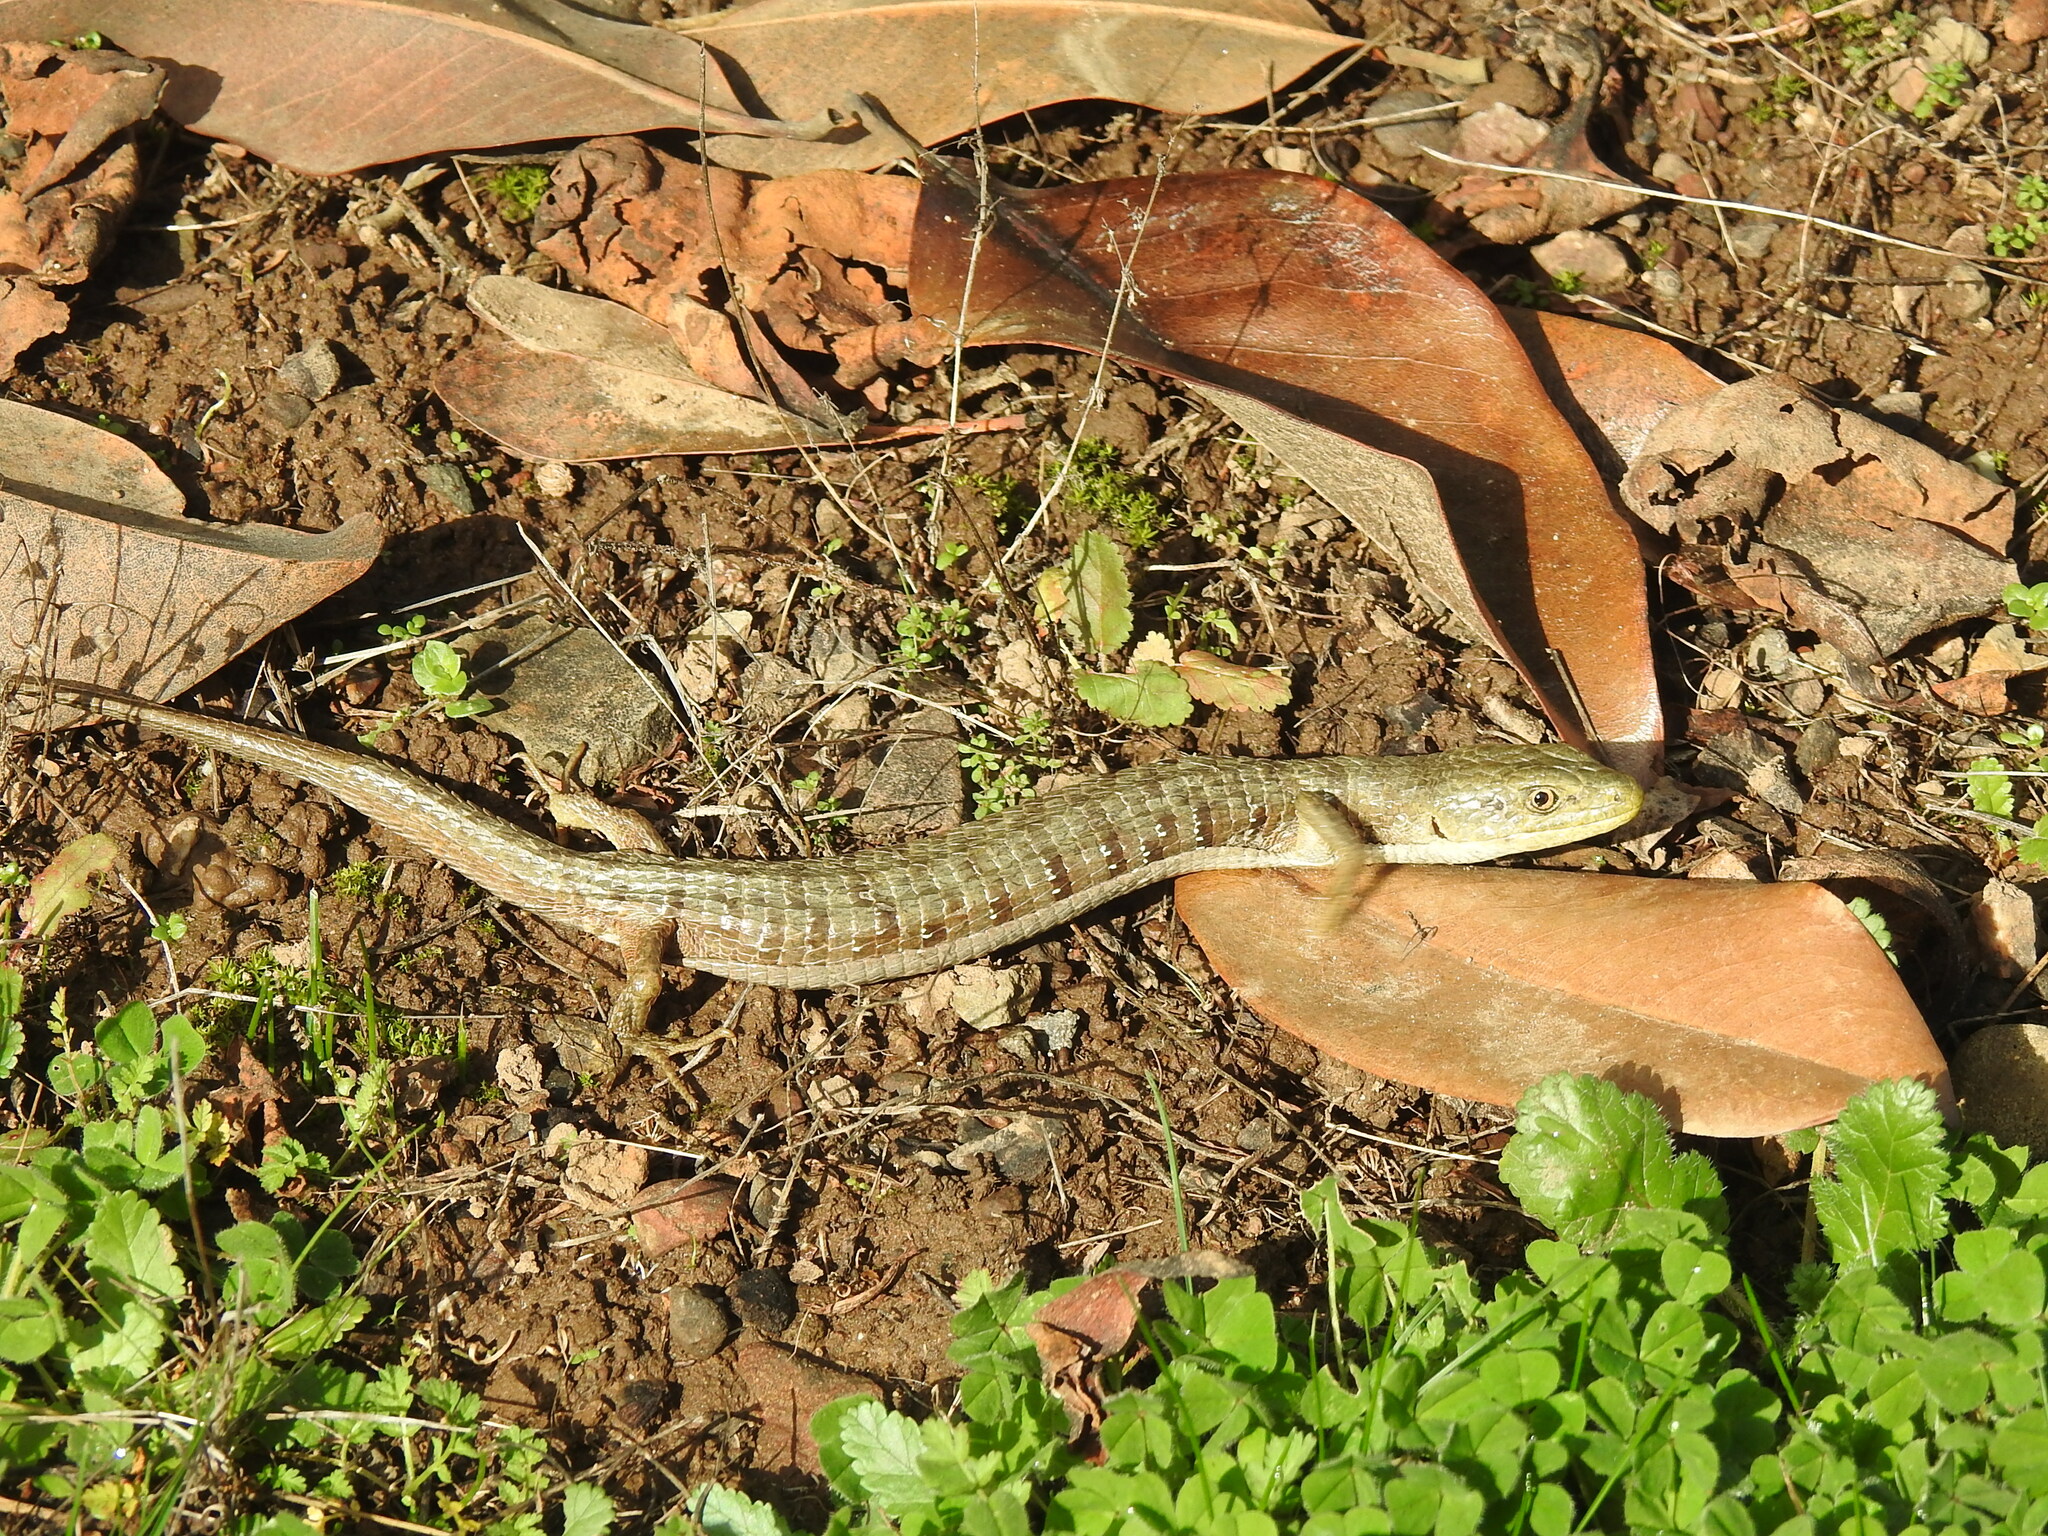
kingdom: Animalia
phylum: Chordata
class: Squamata
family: Anguidae
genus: Elgaria
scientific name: Elgaria multicarinata
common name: Southern alligator lizard
